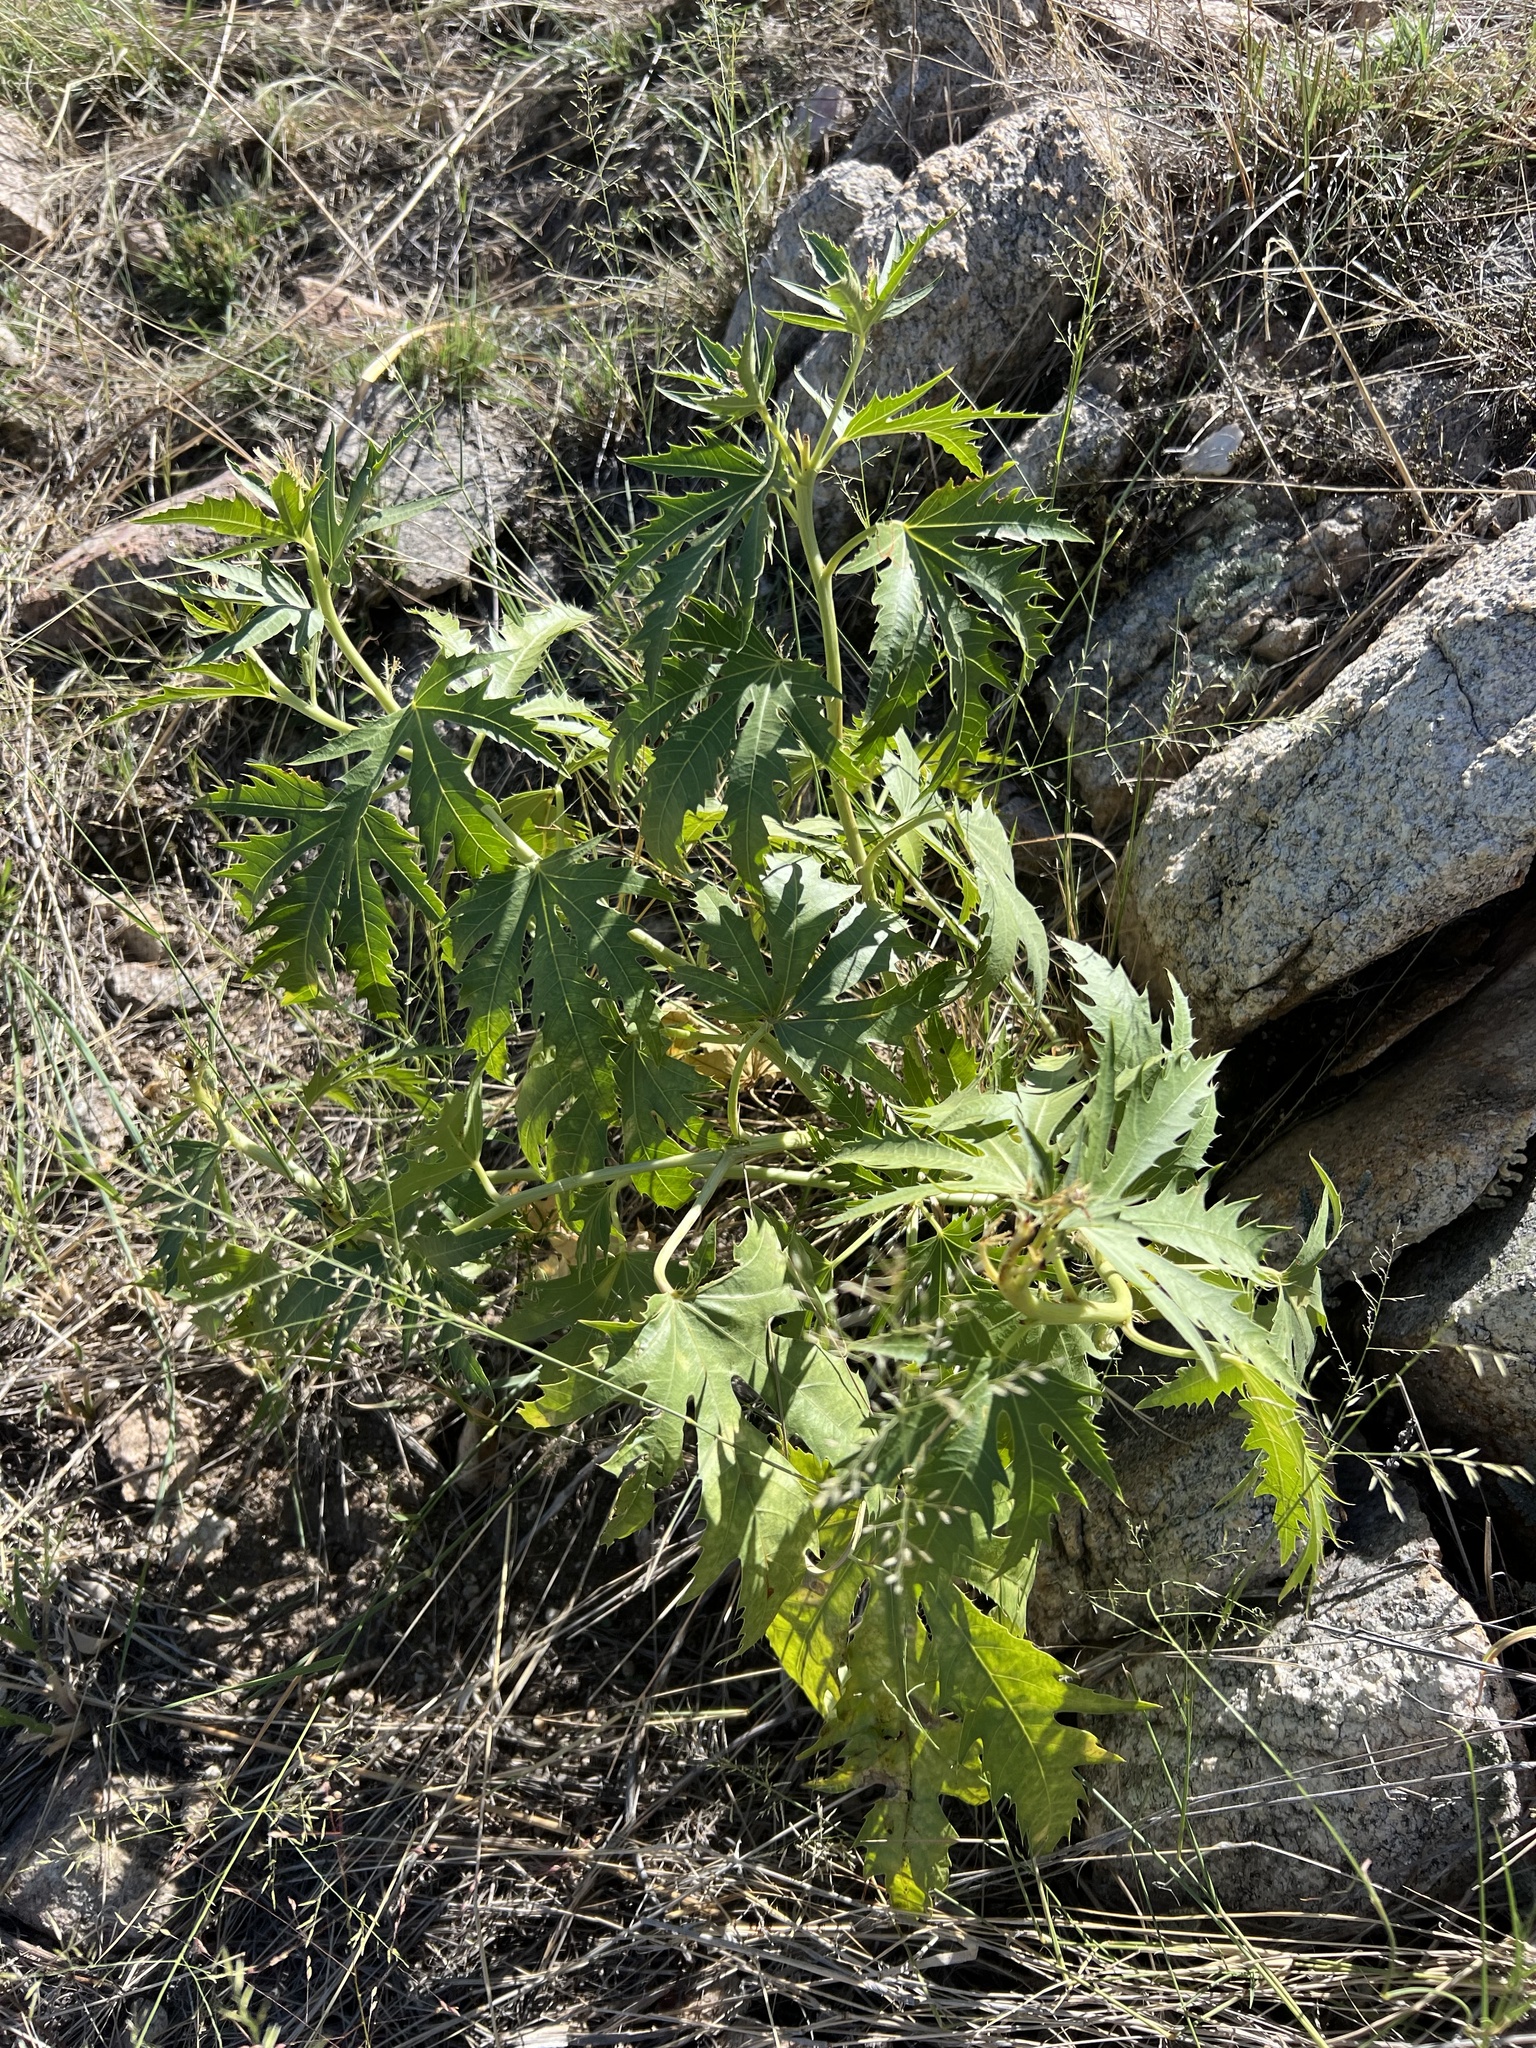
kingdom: Plantae
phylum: Tracheophyta
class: Magnoliopsida
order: Malpighiales
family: Euphorbiaceae
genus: Jatropha
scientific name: Jatropha macrorhiza
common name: Ragged nettlespurge
